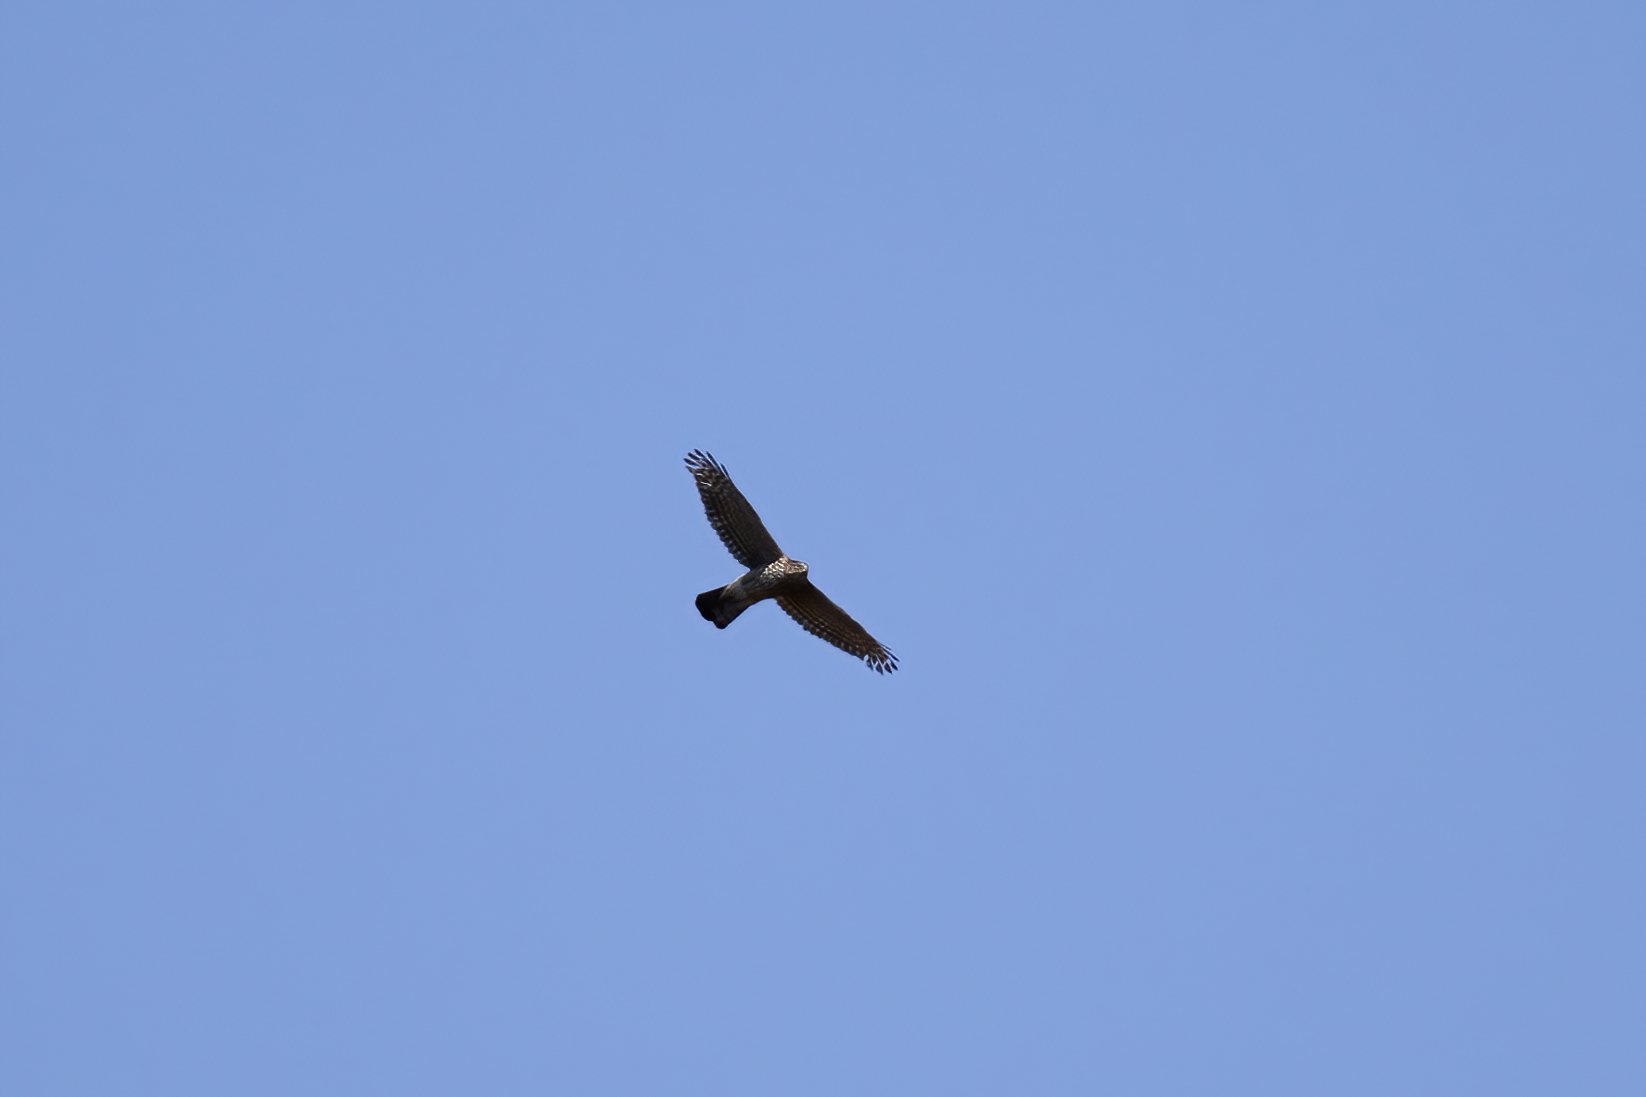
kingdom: Animalia
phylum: Chordata
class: Aves
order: Accipitriformes
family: Accipitridae
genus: Accipiter
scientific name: Accipiter cooperii
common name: Cooper's hawk
